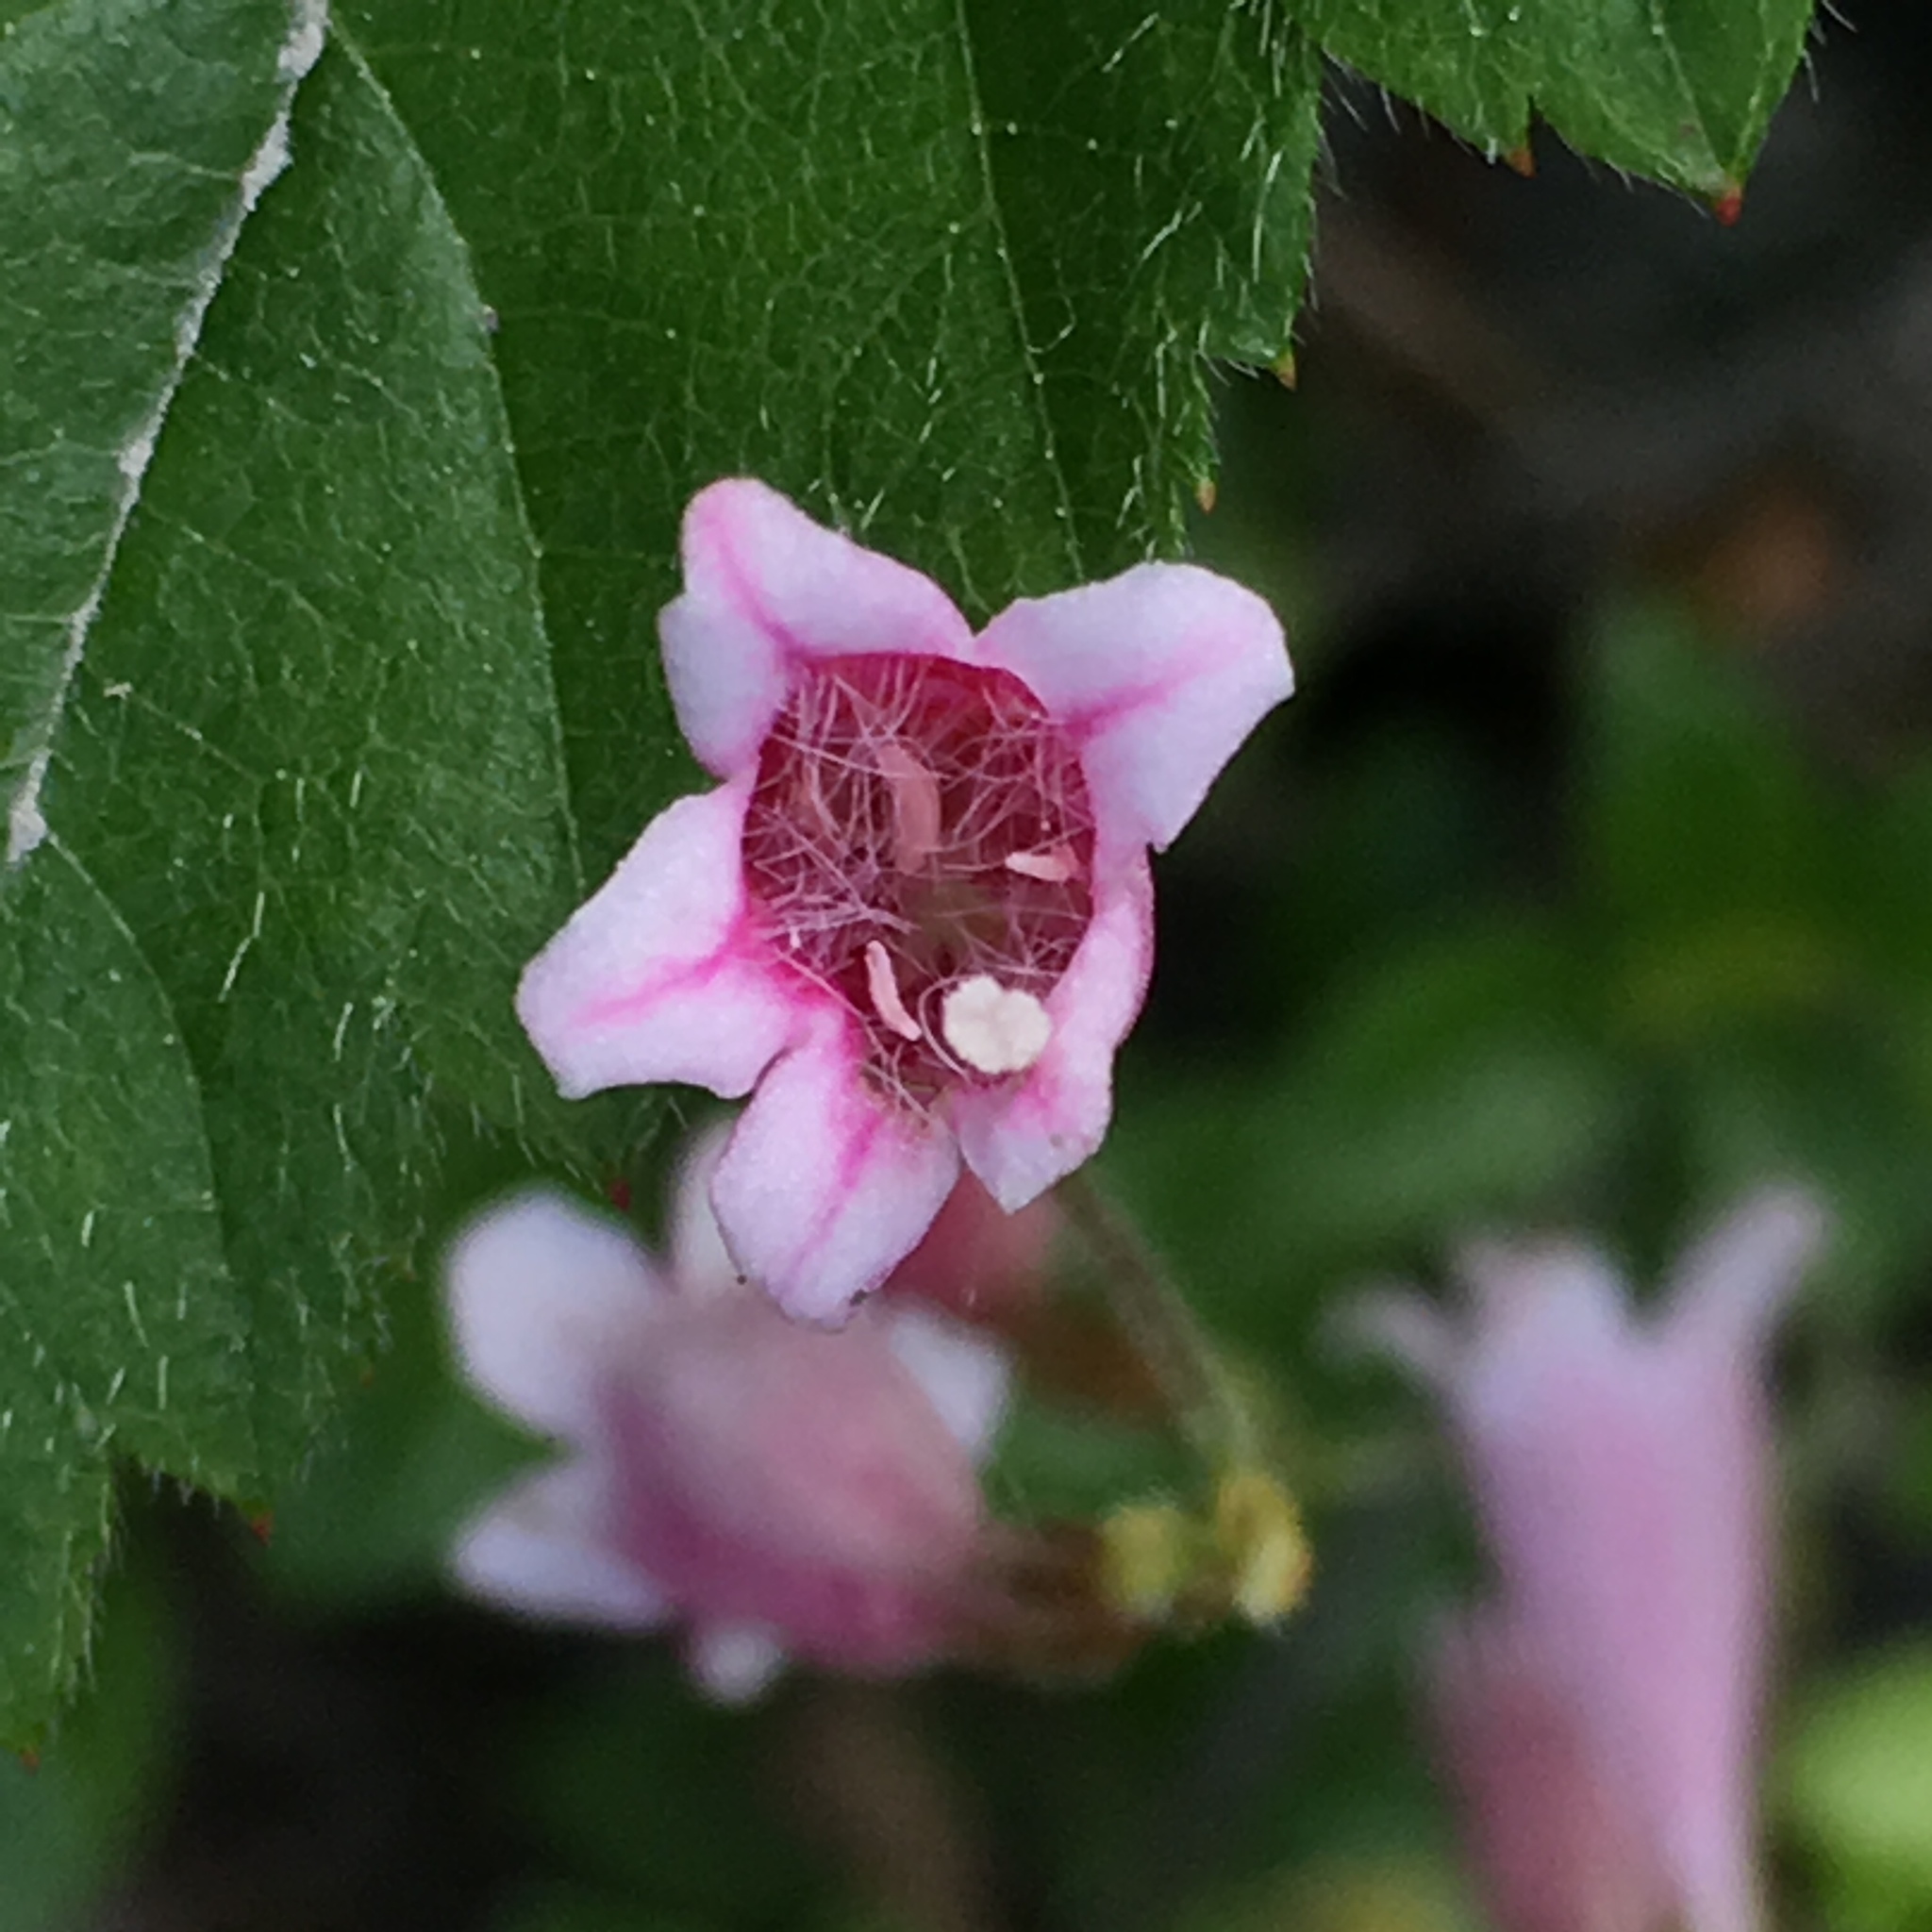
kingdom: Plantae
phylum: Tracheophyta
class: Magnoliopsida
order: Dipsacales
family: Caprifoliaceae
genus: Linnaea
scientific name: Linnaea borealis
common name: Twinflower
